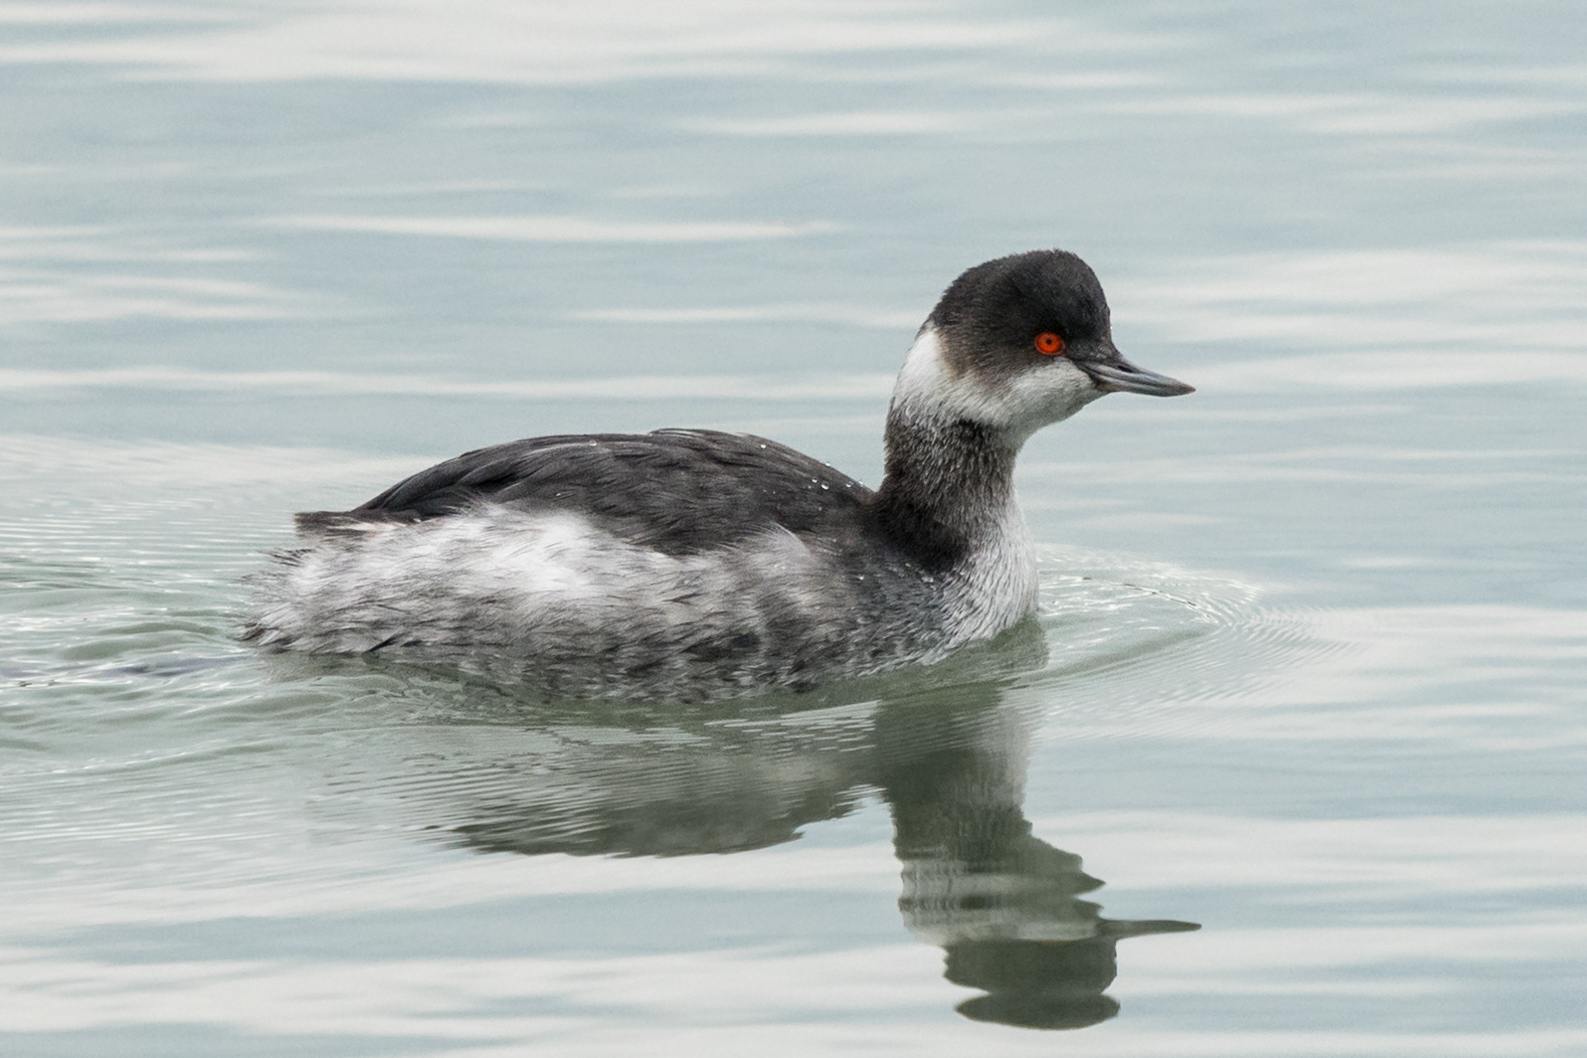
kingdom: Animalia
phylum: Chordata
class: Aves
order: Podicipediformes
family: Podicipedidae
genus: Podiceps
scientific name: Podiceps nigricollis
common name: Black-necked grebe
